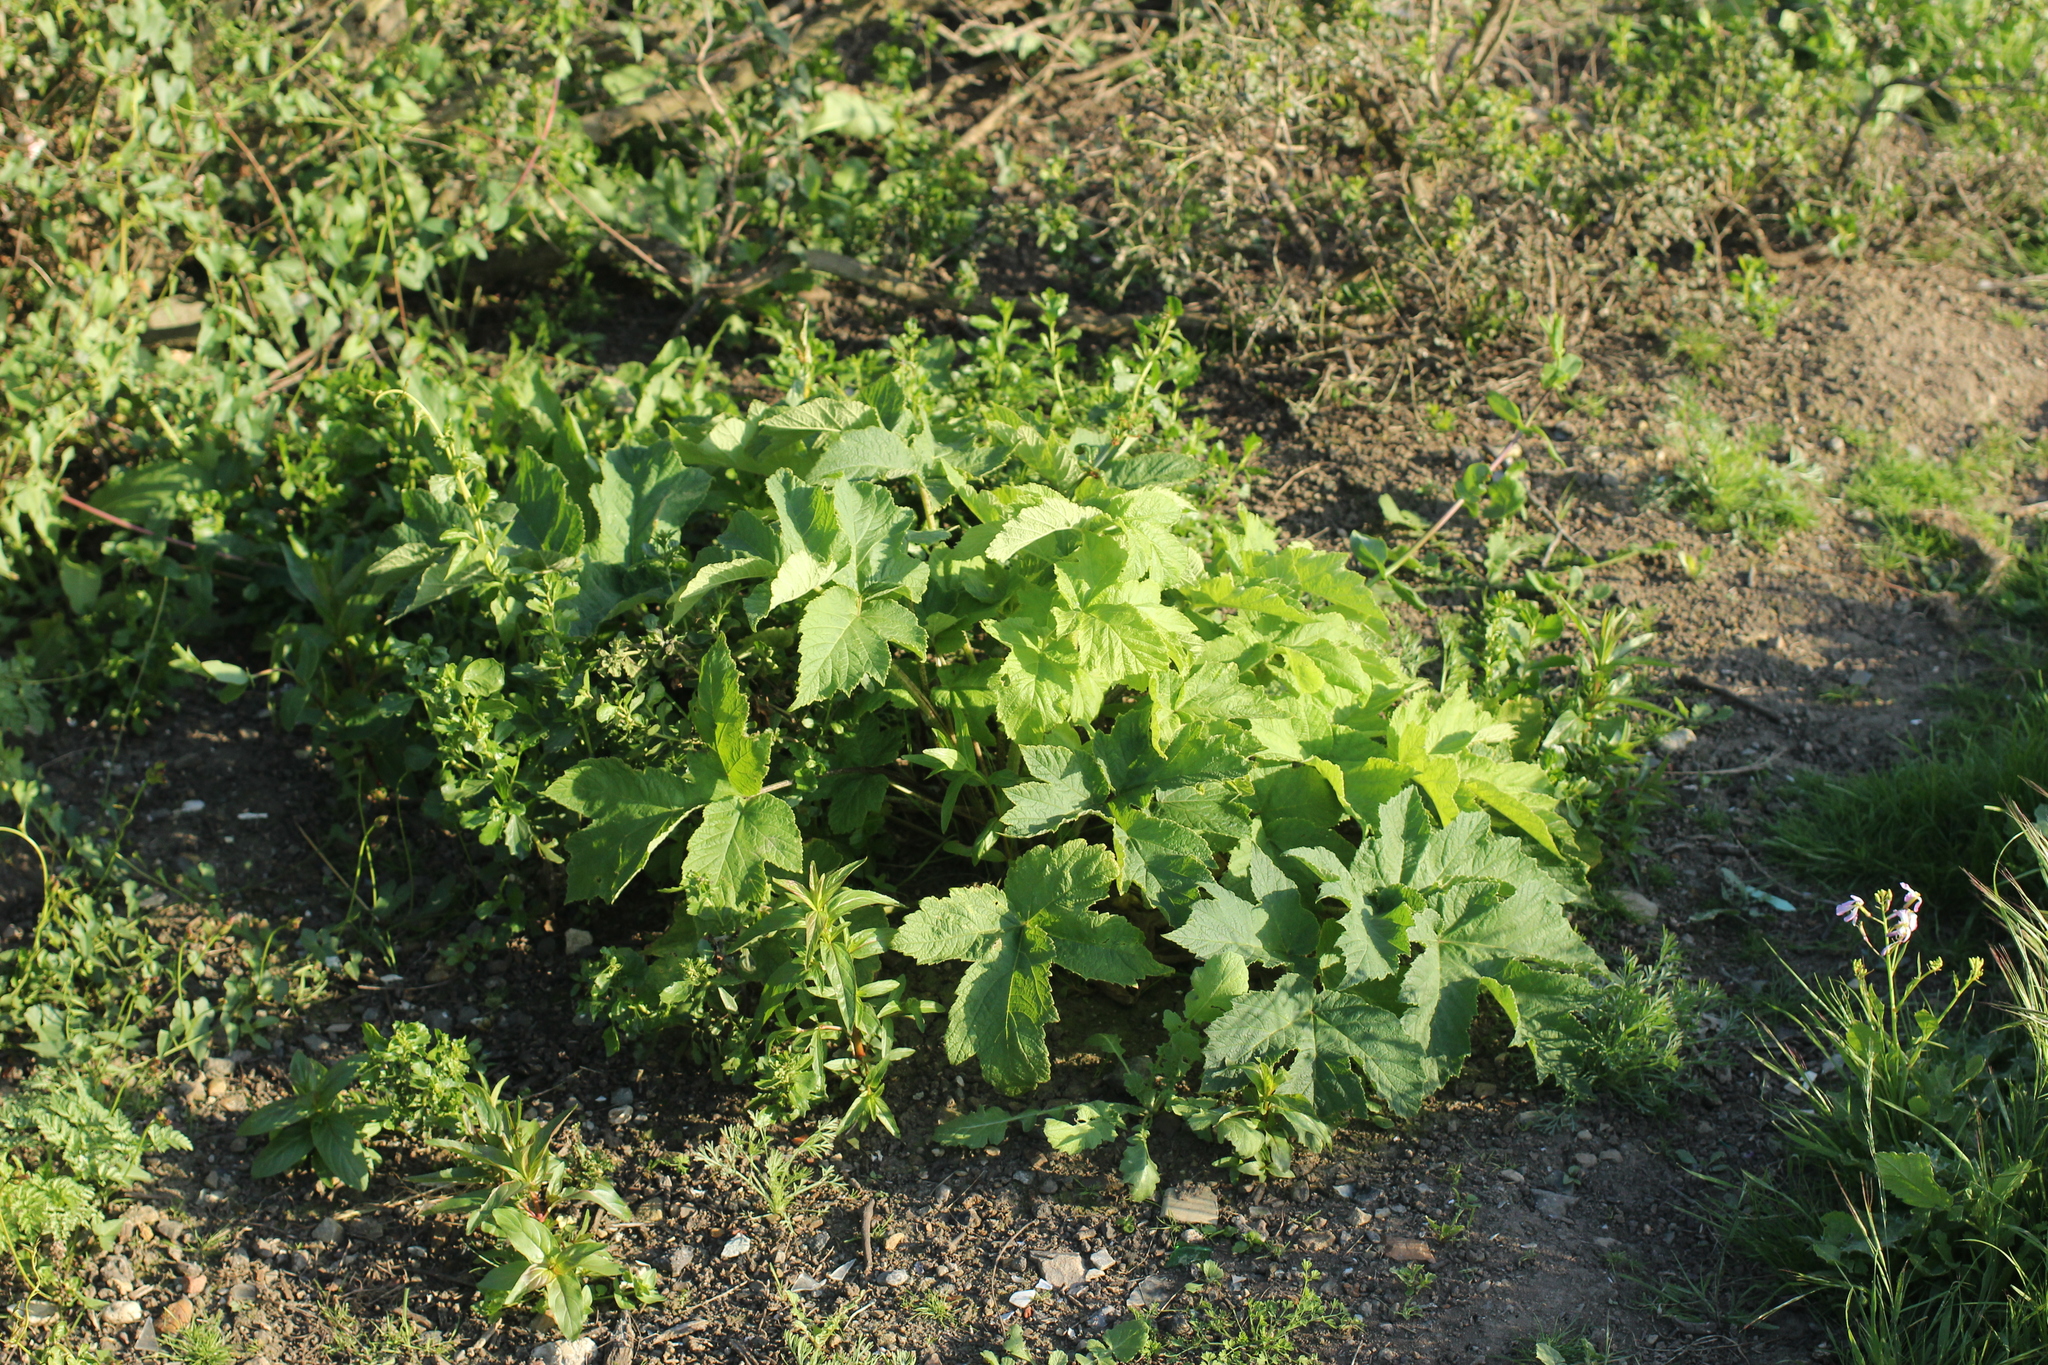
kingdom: Plantae
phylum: Tracheophyta
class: Magnoliopsida
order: Apiales
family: Apiaceae
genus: Heracleum
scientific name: Heracleum maximum
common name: American cow parsnip
